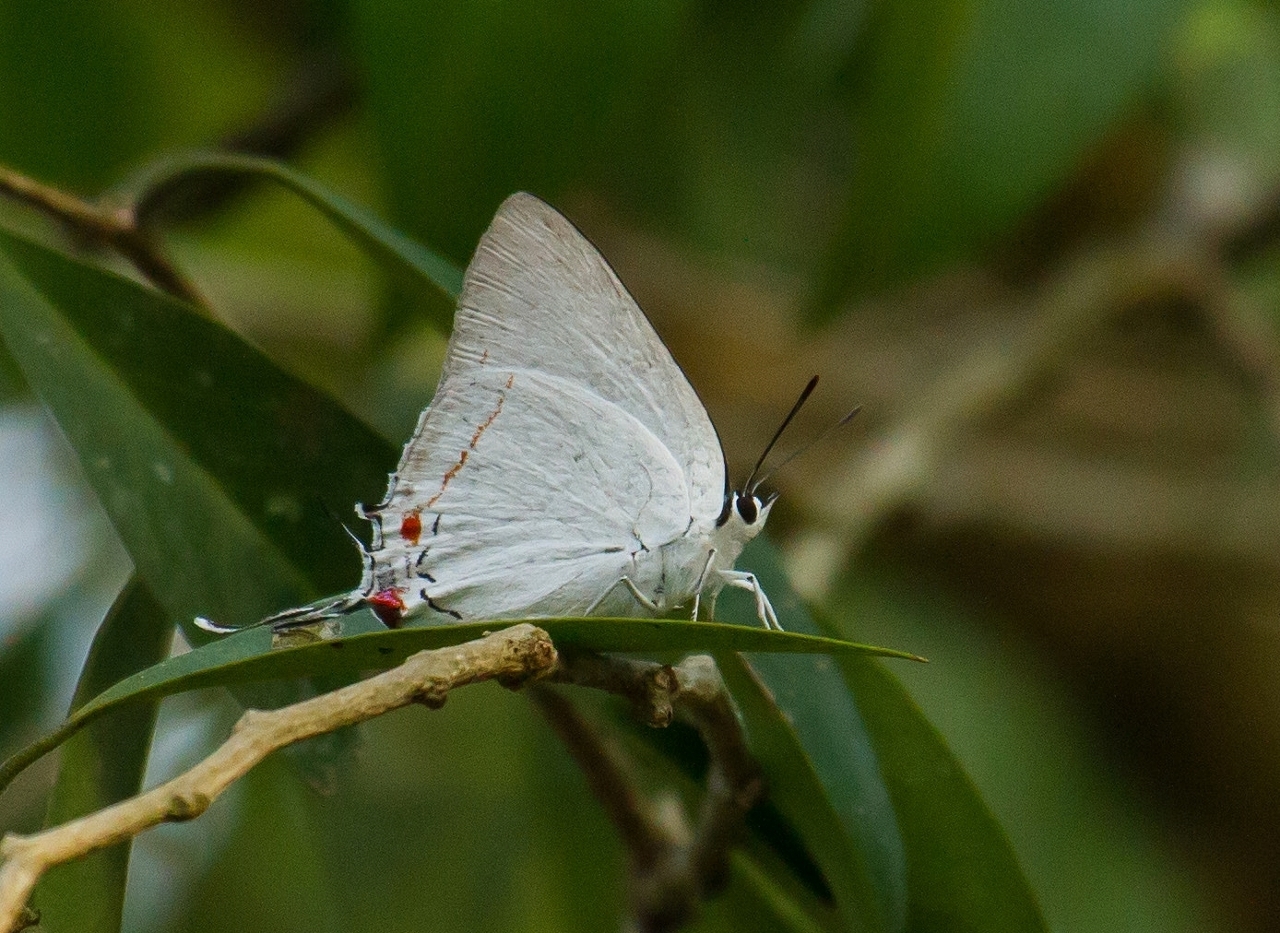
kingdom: Animalia
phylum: Arthropoda
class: Insecta
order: Lepidoptera
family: Lycaenidae
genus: Argiolaus
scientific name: Argiolaus silas
